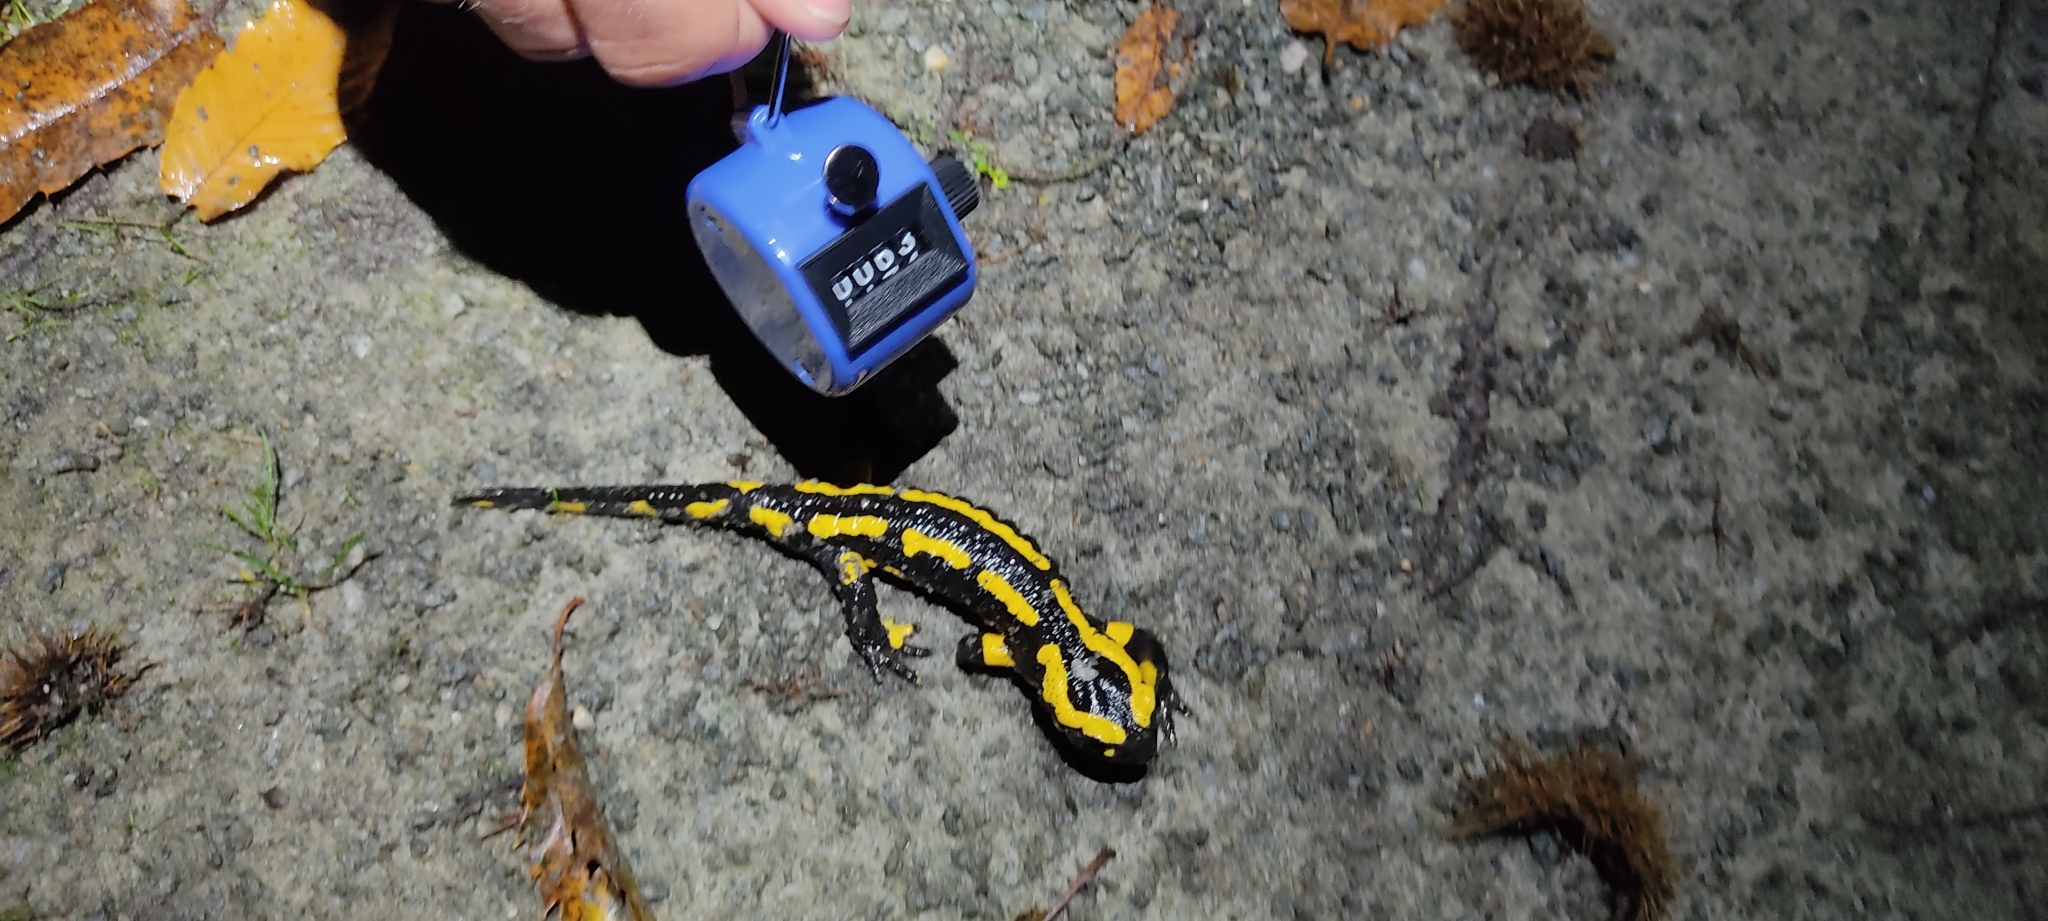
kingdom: Animalia
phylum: Chordata
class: Amphibia
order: Caudata
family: Salamandridae
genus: Salamandra
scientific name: Salamandra salamandra
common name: Fire salamander
